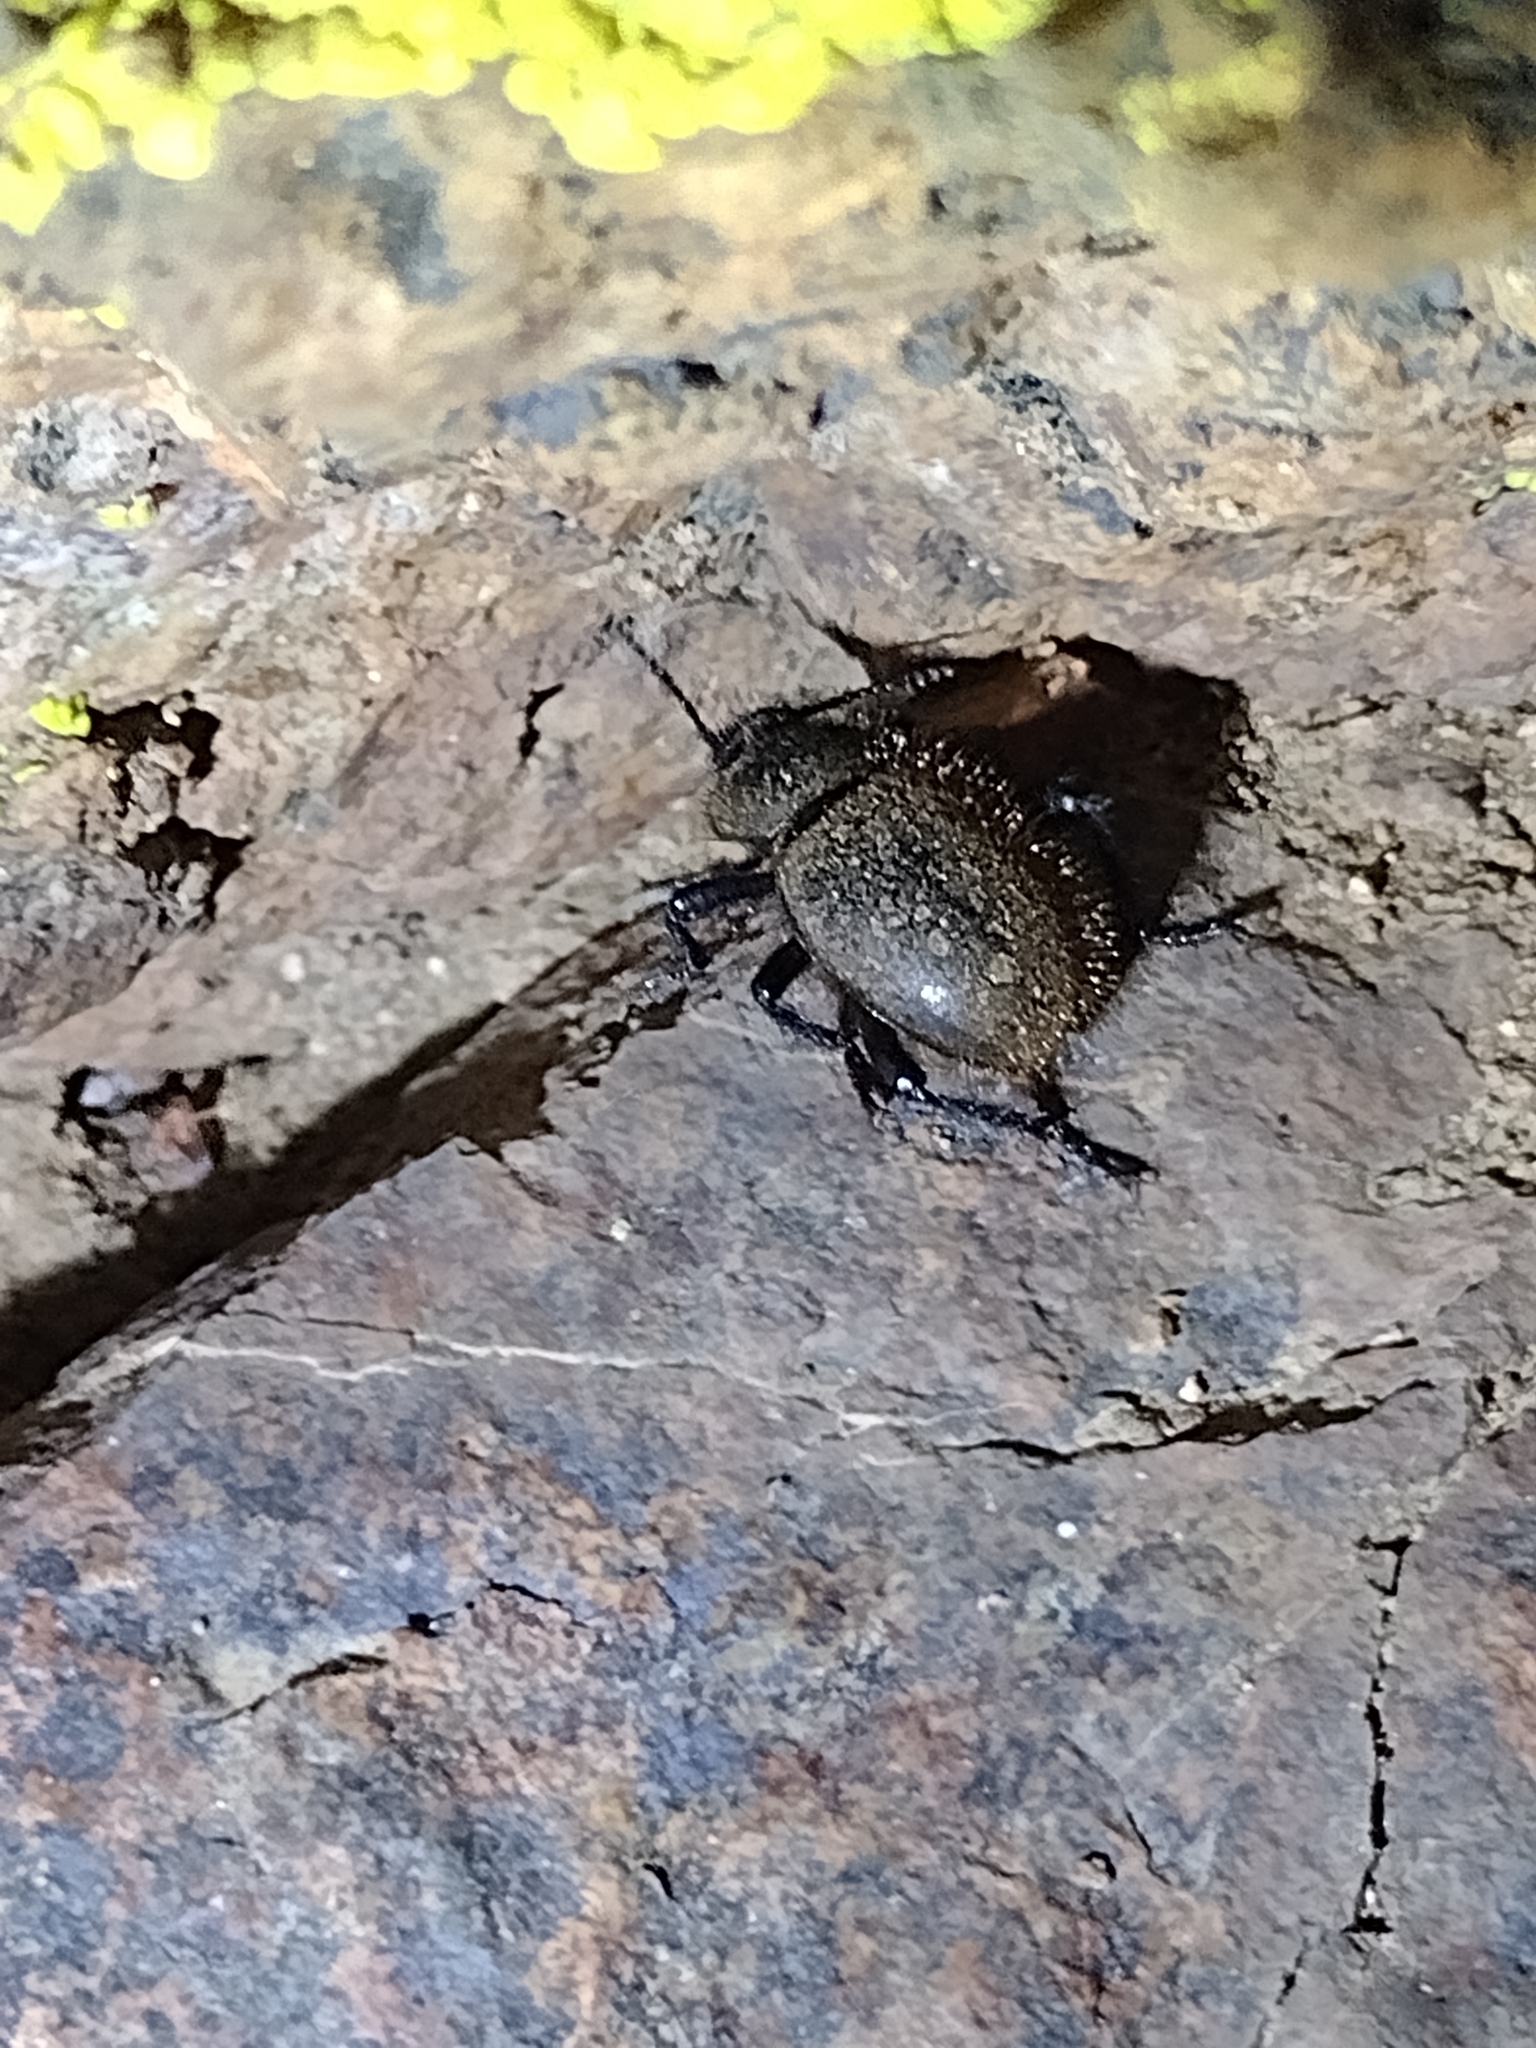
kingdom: Animalia
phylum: Arthropoda
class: Insecta
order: Coleoptera
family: Tenebrionidae
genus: Eleodes
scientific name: Eleodes osculans
